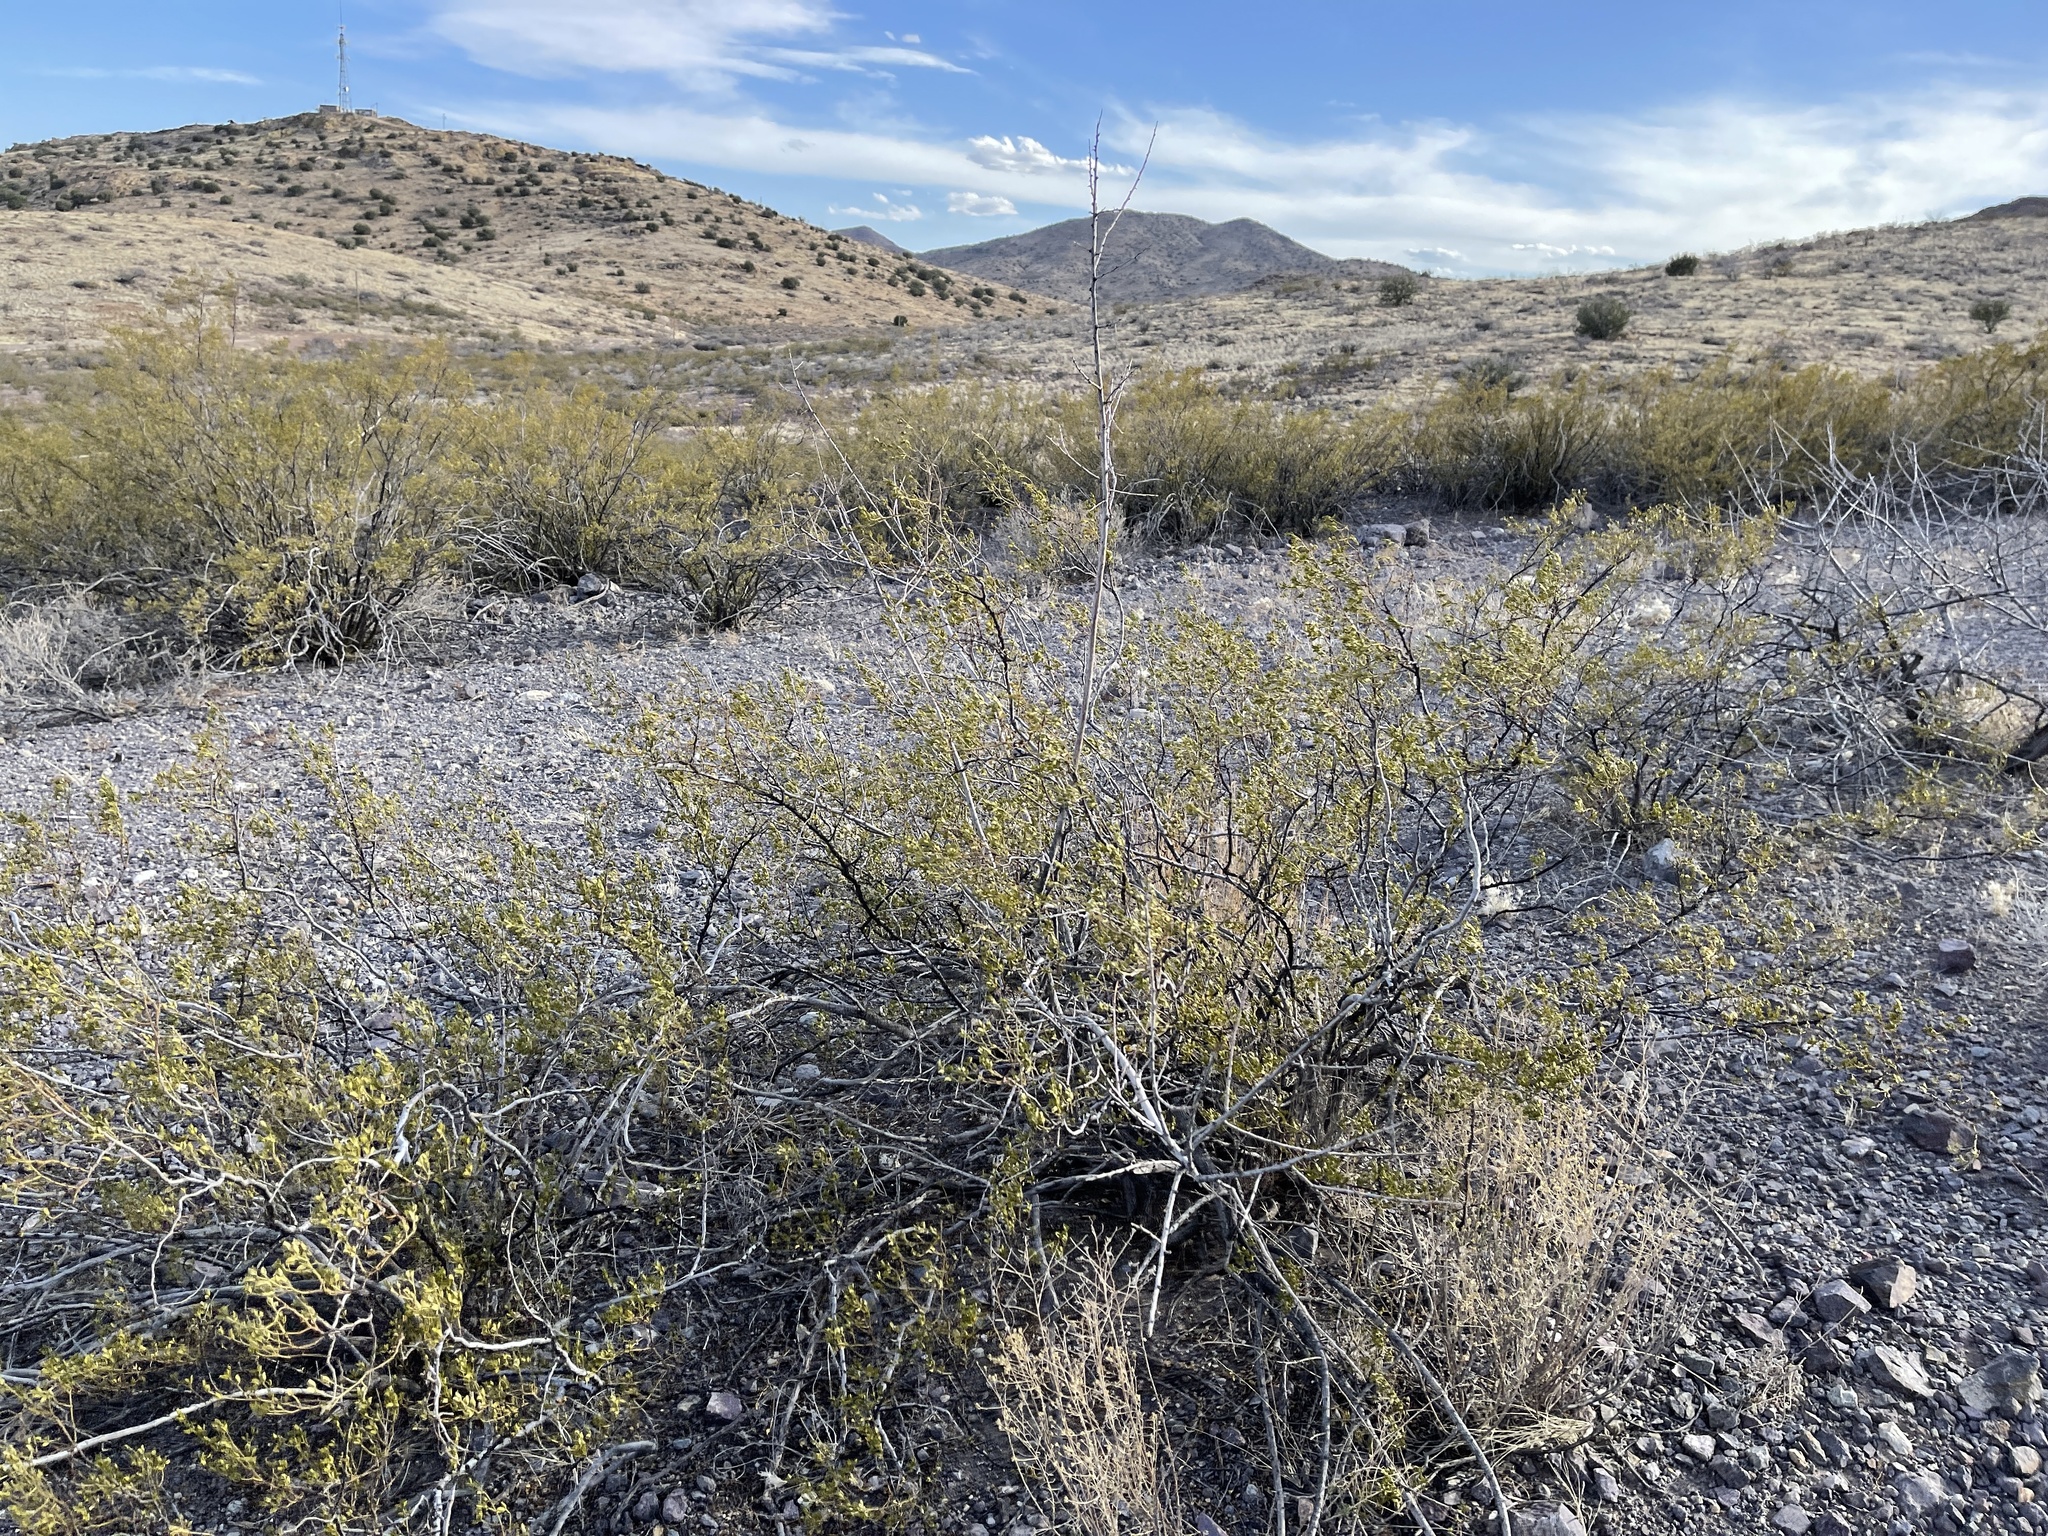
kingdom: Plantae
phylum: Tracheophyta
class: Magnoliopsida
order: Zygophyllales
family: Zygophyllaceae
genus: Larrea
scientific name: Larrea tridentata
